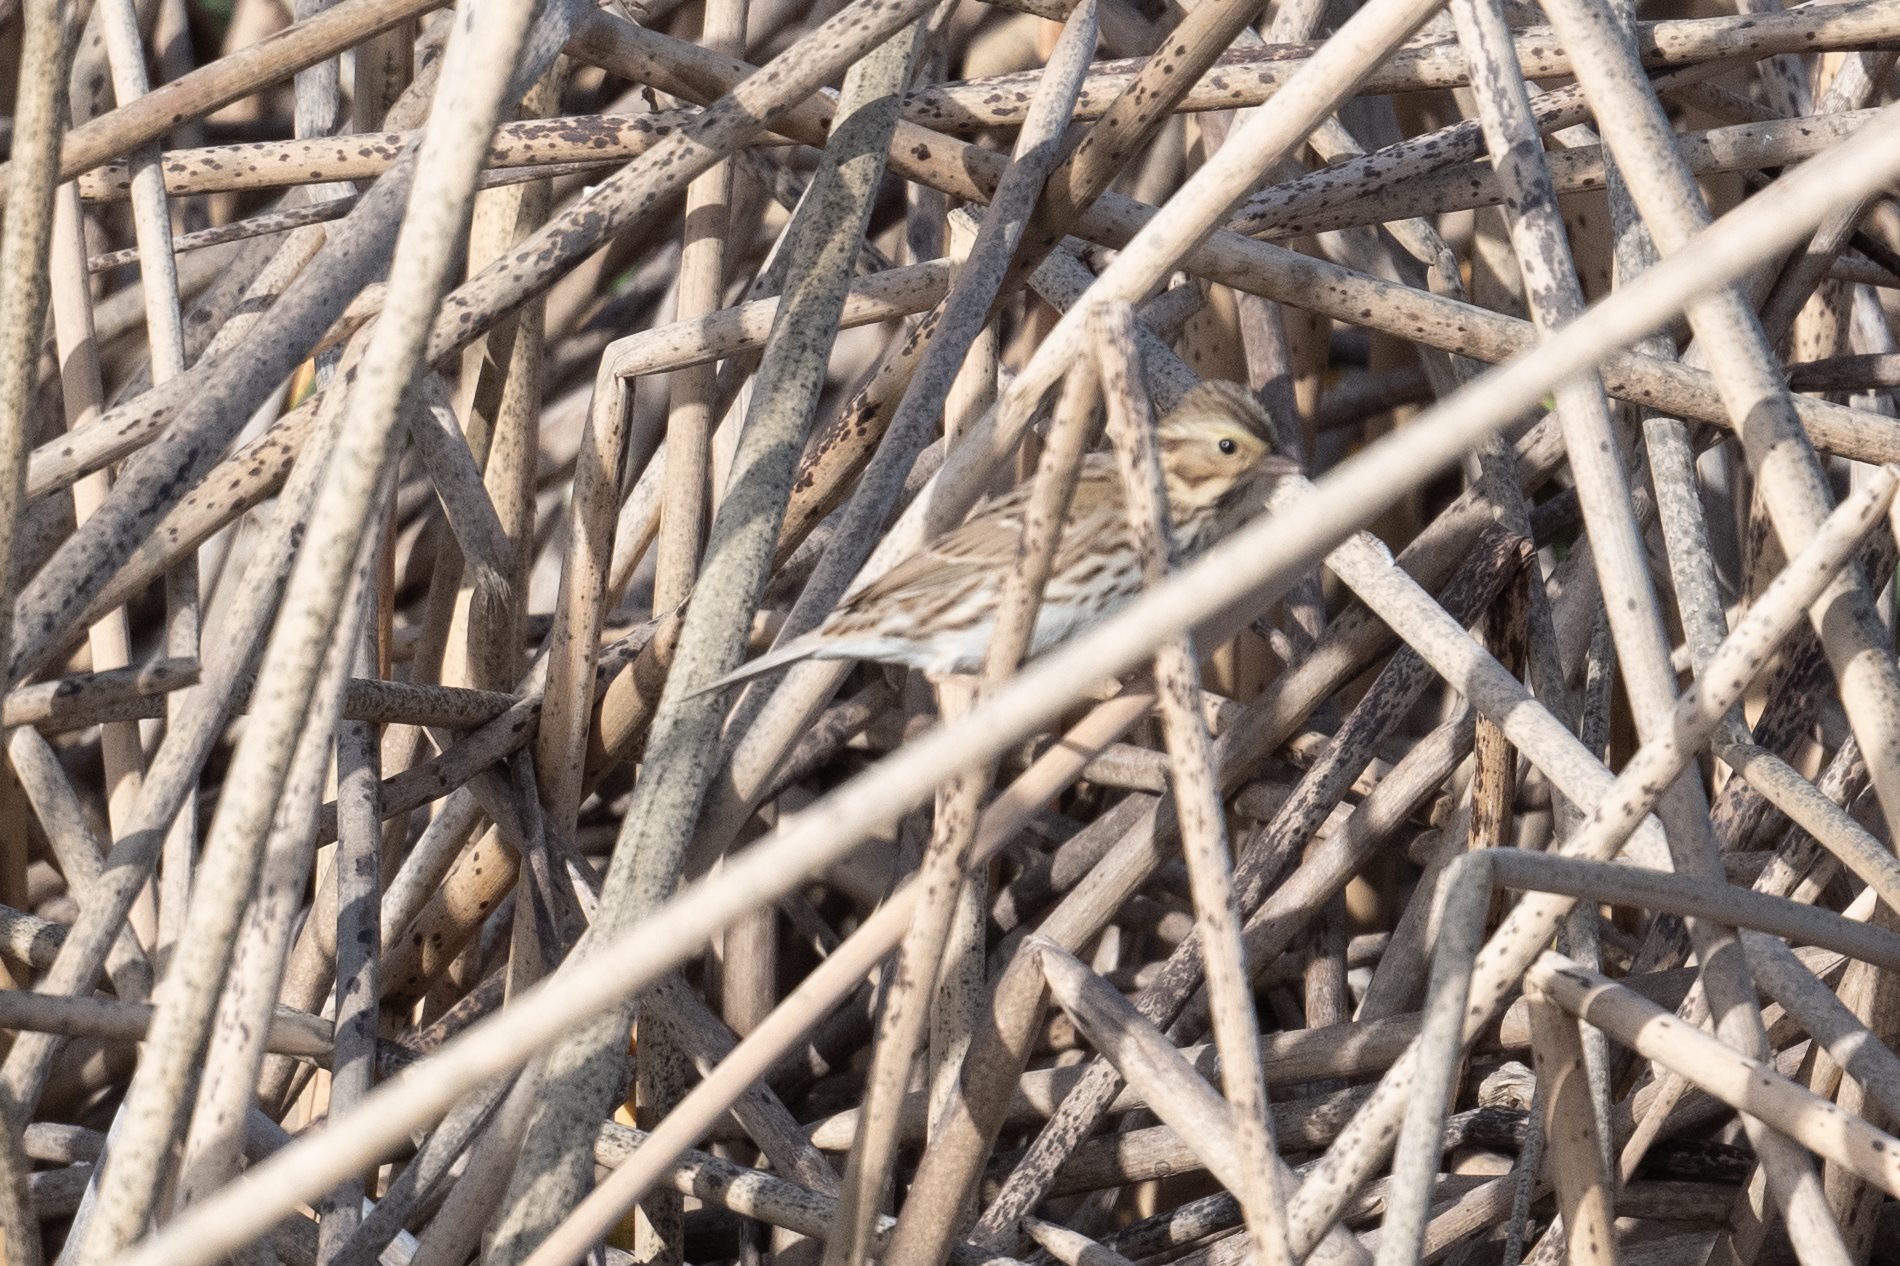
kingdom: Animalia
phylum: Chordata
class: Aves
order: Passeriformes
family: Passerellidae
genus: Passerculus
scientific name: Passerculus sandwichensis
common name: Savannah sparrow
